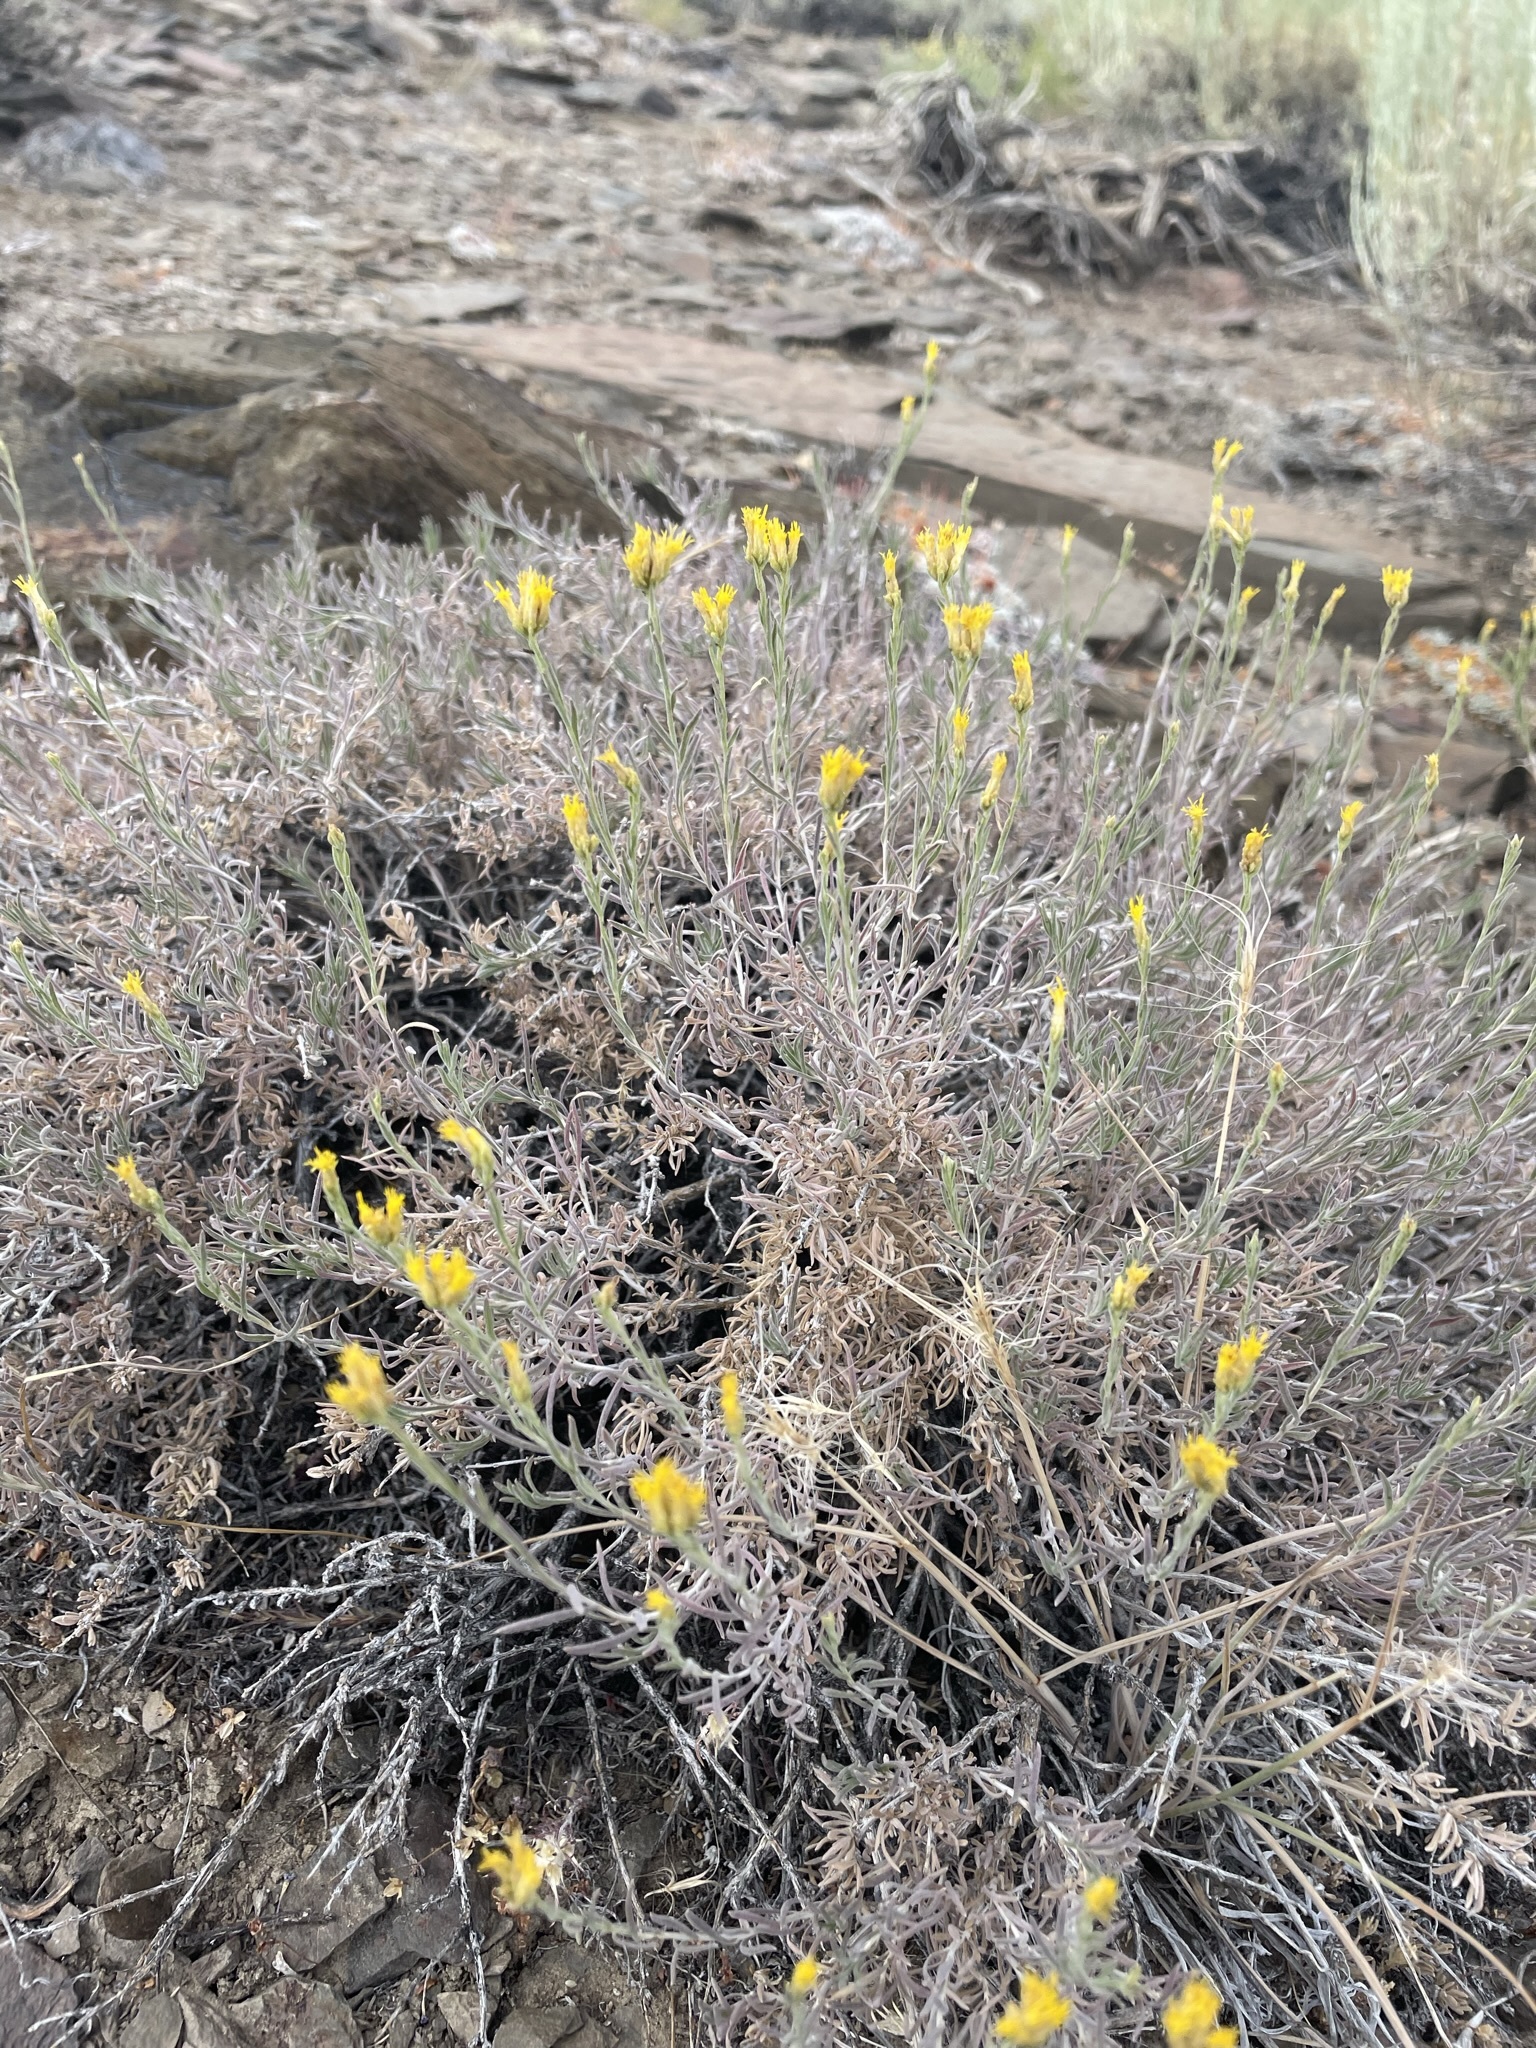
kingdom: Plantae
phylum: Tracheophyta
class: Magnoliopsida
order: Asterales
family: Asteraceae
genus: Chrysothamnus
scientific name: Chrysothamnus viscidiflorus
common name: Yellow rabbitbrush
